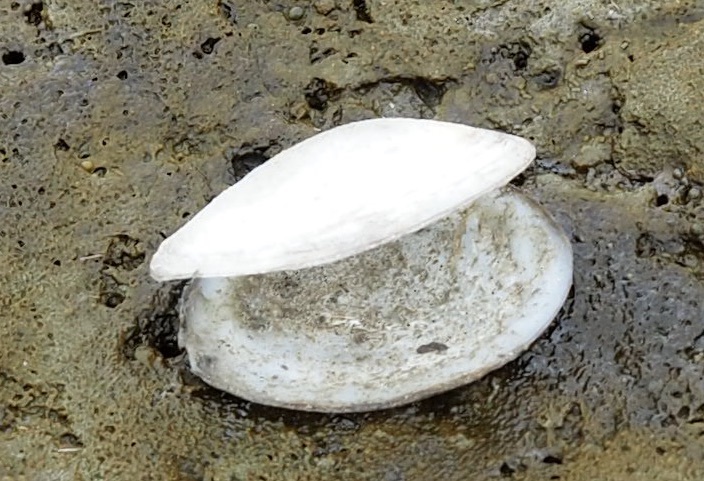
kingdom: Animalia
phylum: Mollusca
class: Bivalvia
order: Cardiida
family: Semelidae
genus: Scrobicularia
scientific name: Scrobicularia plana
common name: Peppery furrow shell
